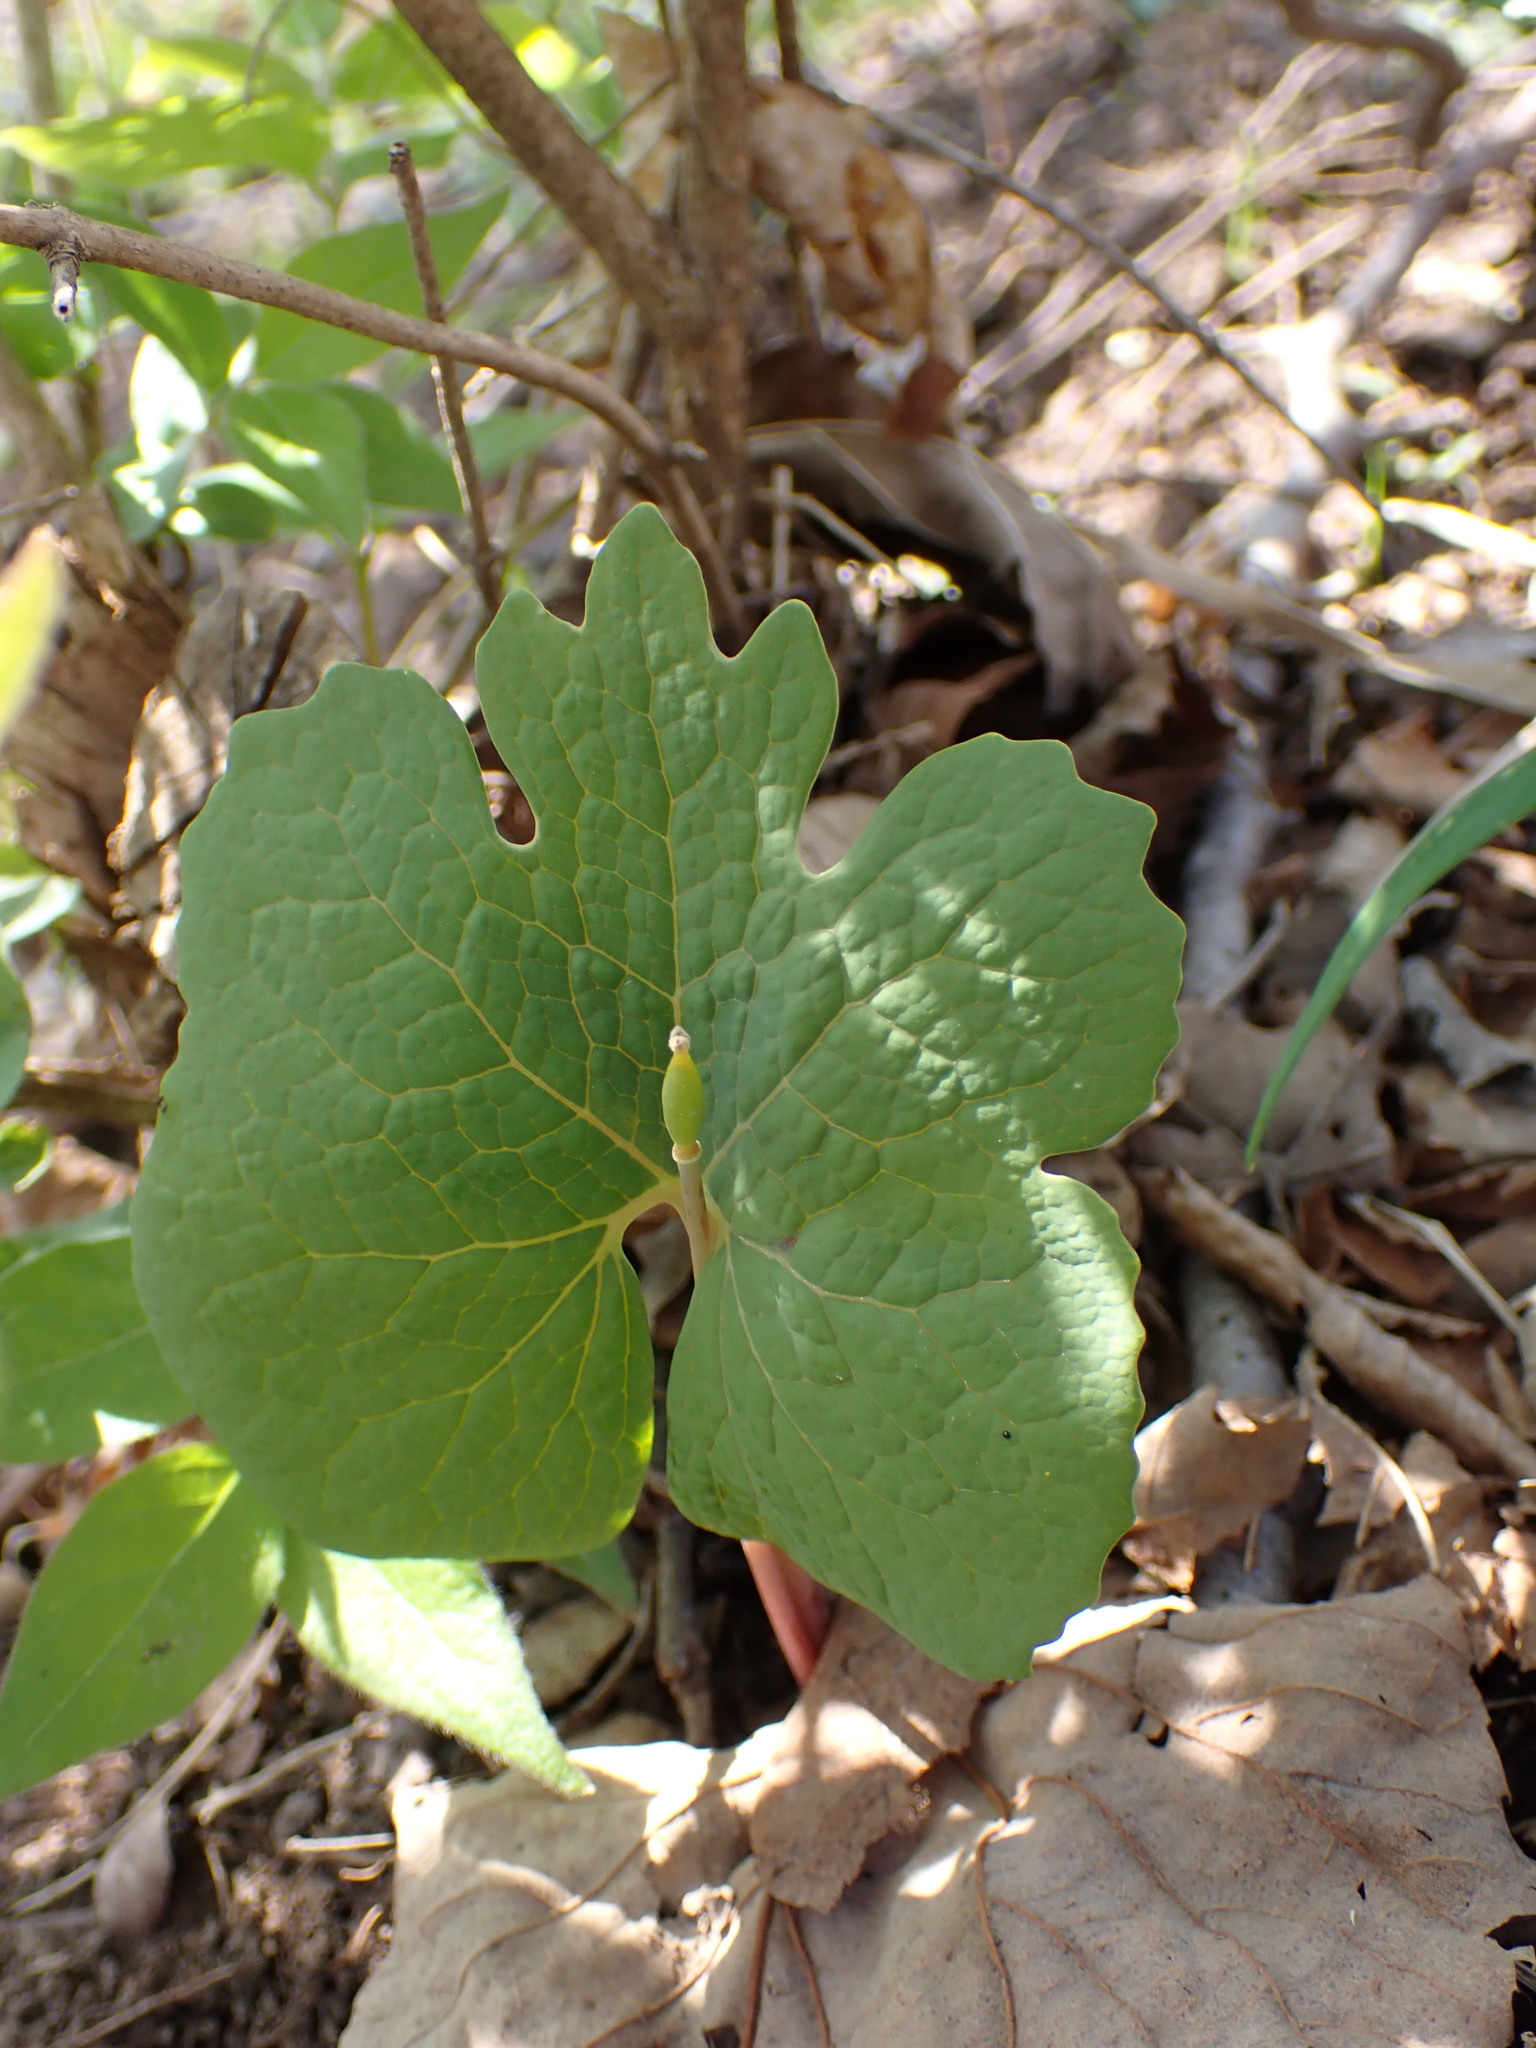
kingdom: Plantae
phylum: Tracheophyta
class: Magnoliopsida
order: Ranunculales
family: Papaveraceae
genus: Sanguinaria
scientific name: Sanguinaria canadensis
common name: Bloodroot
